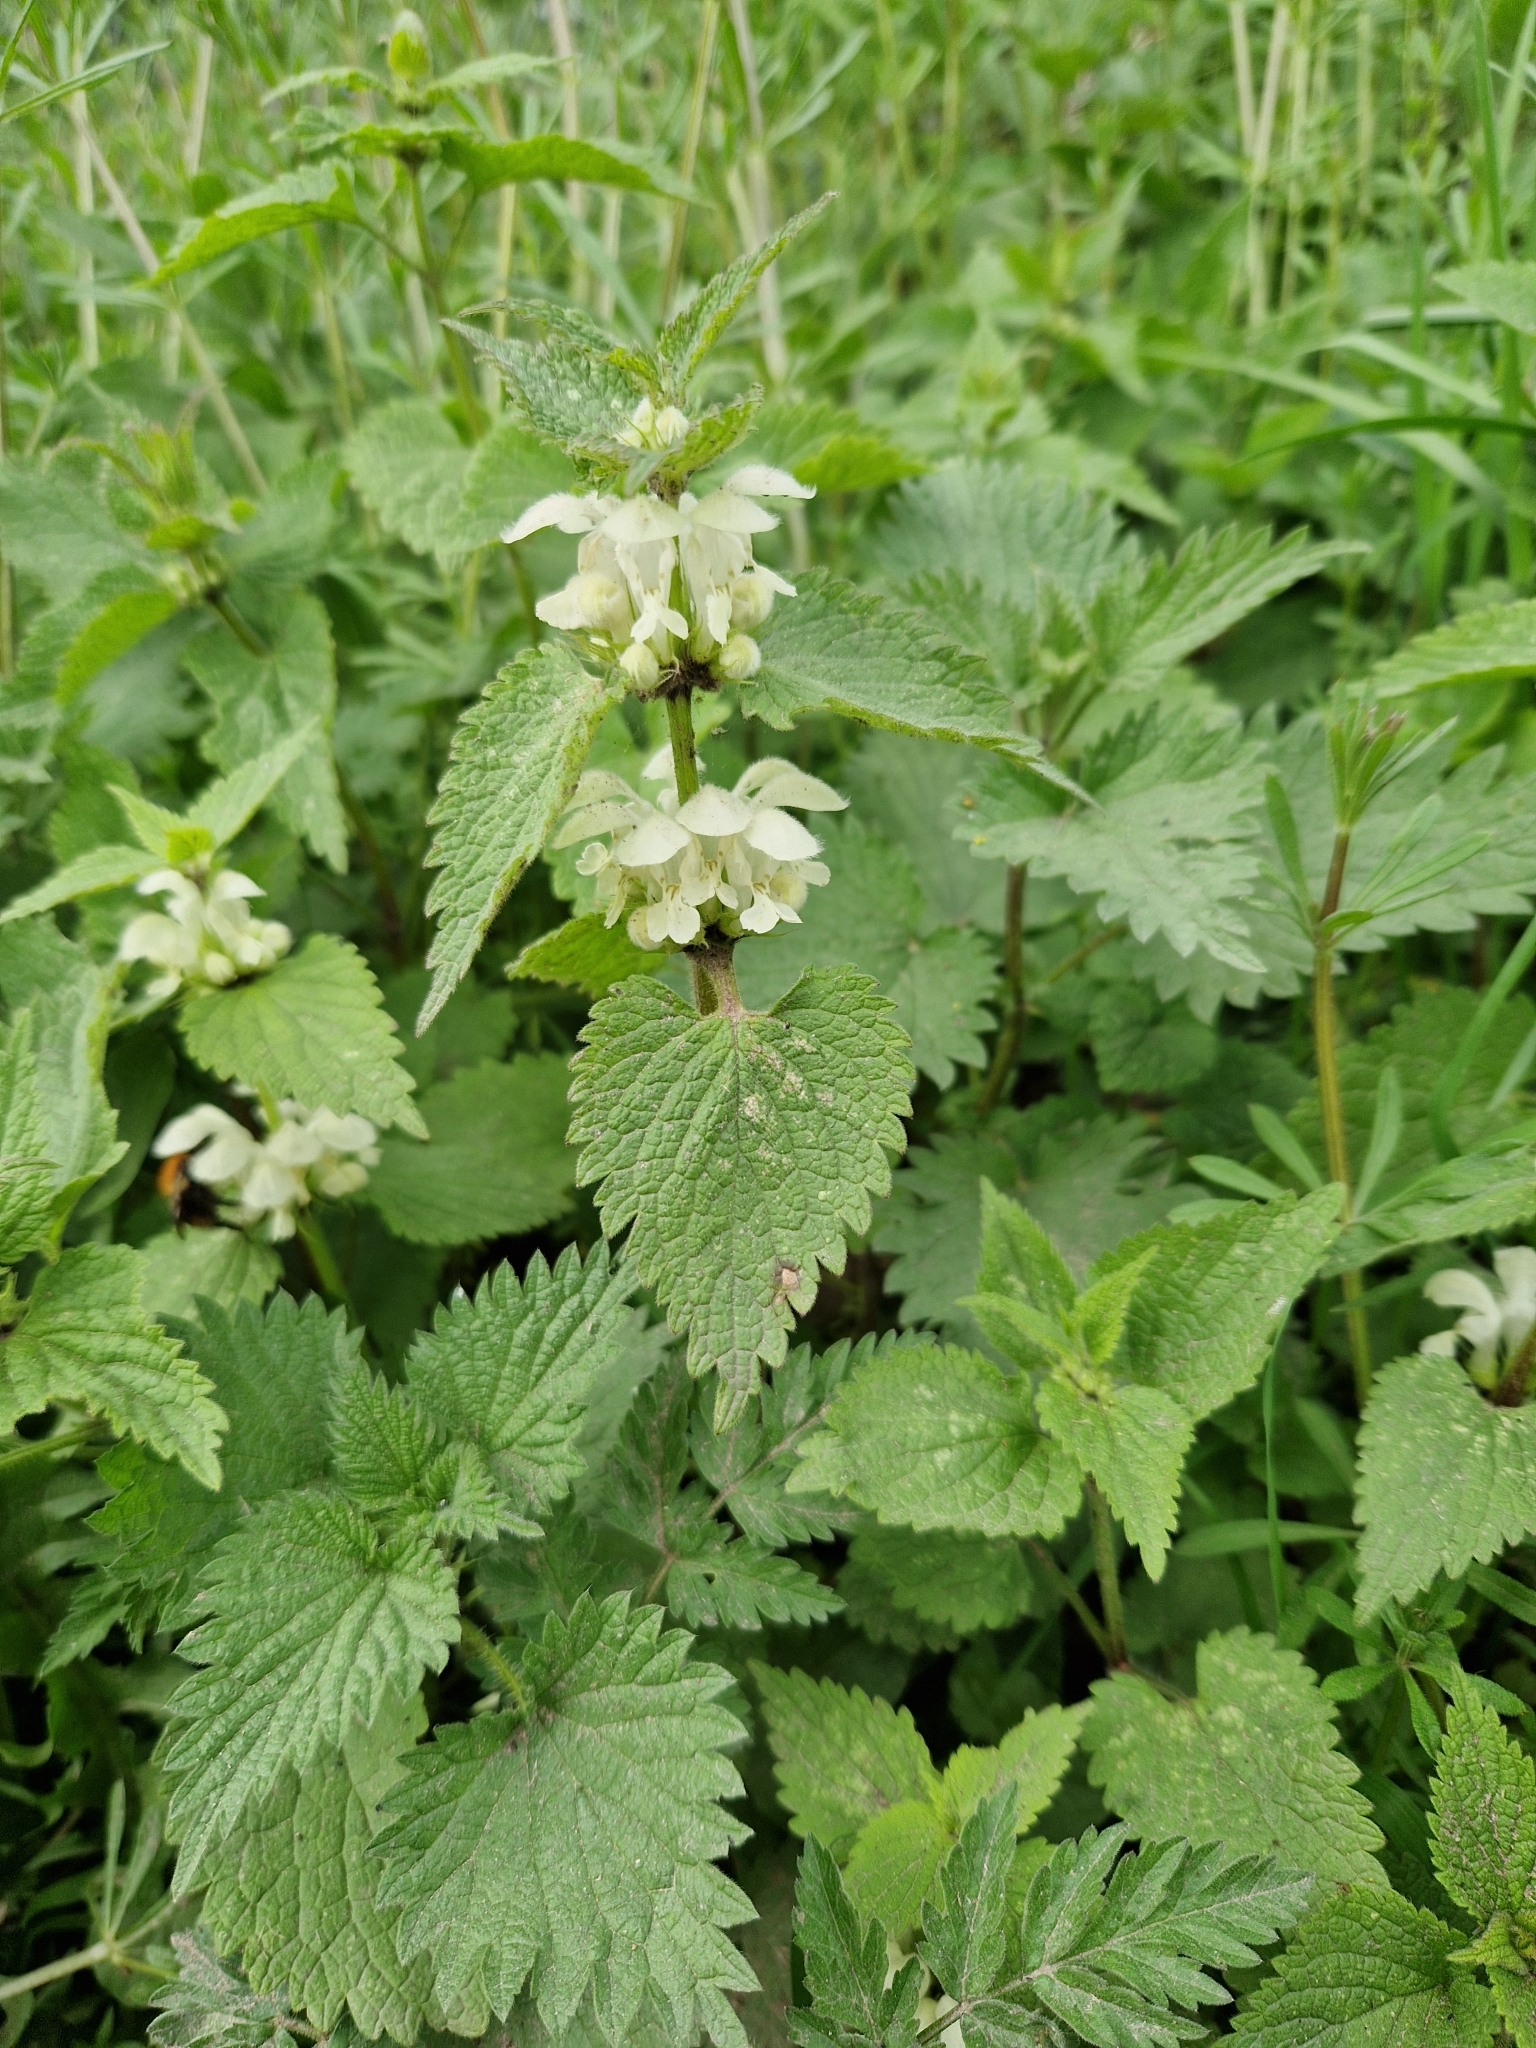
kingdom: Plantae
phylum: Tracheophyta
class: Magnoliopsida
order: Lamiales
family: Lamiaceae
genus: Lamium
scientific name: Lamium album
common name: White dead-nettle
